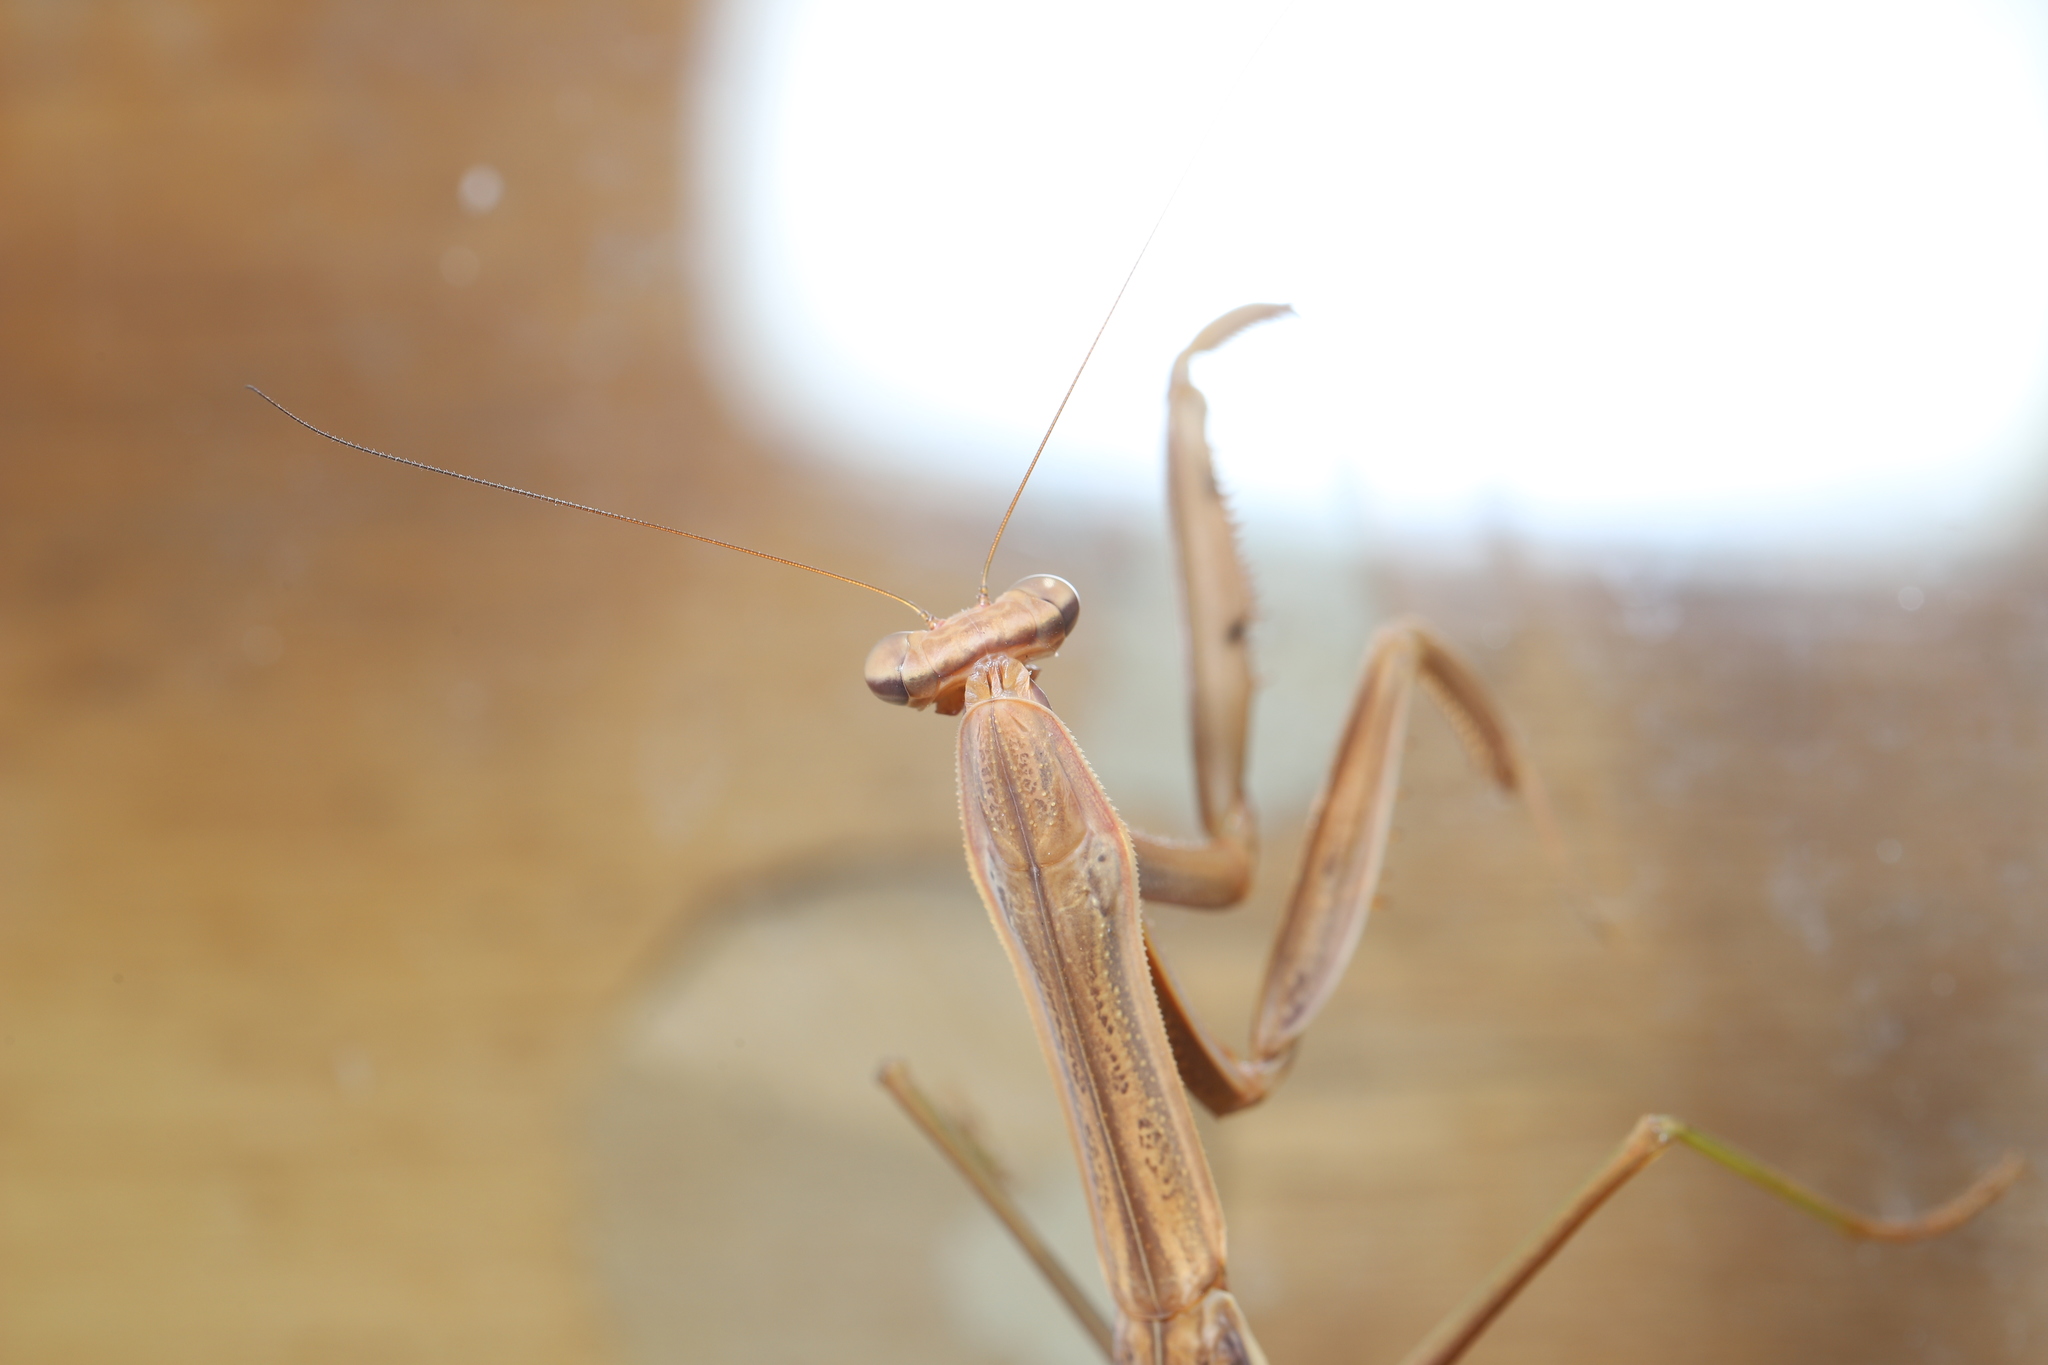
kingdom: Animalia
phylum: Arthropoda
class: Insecta
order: Mantodea
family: Mantidae
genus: Tenodera
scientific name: Tenodera sinensis
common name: Chinese mantis
